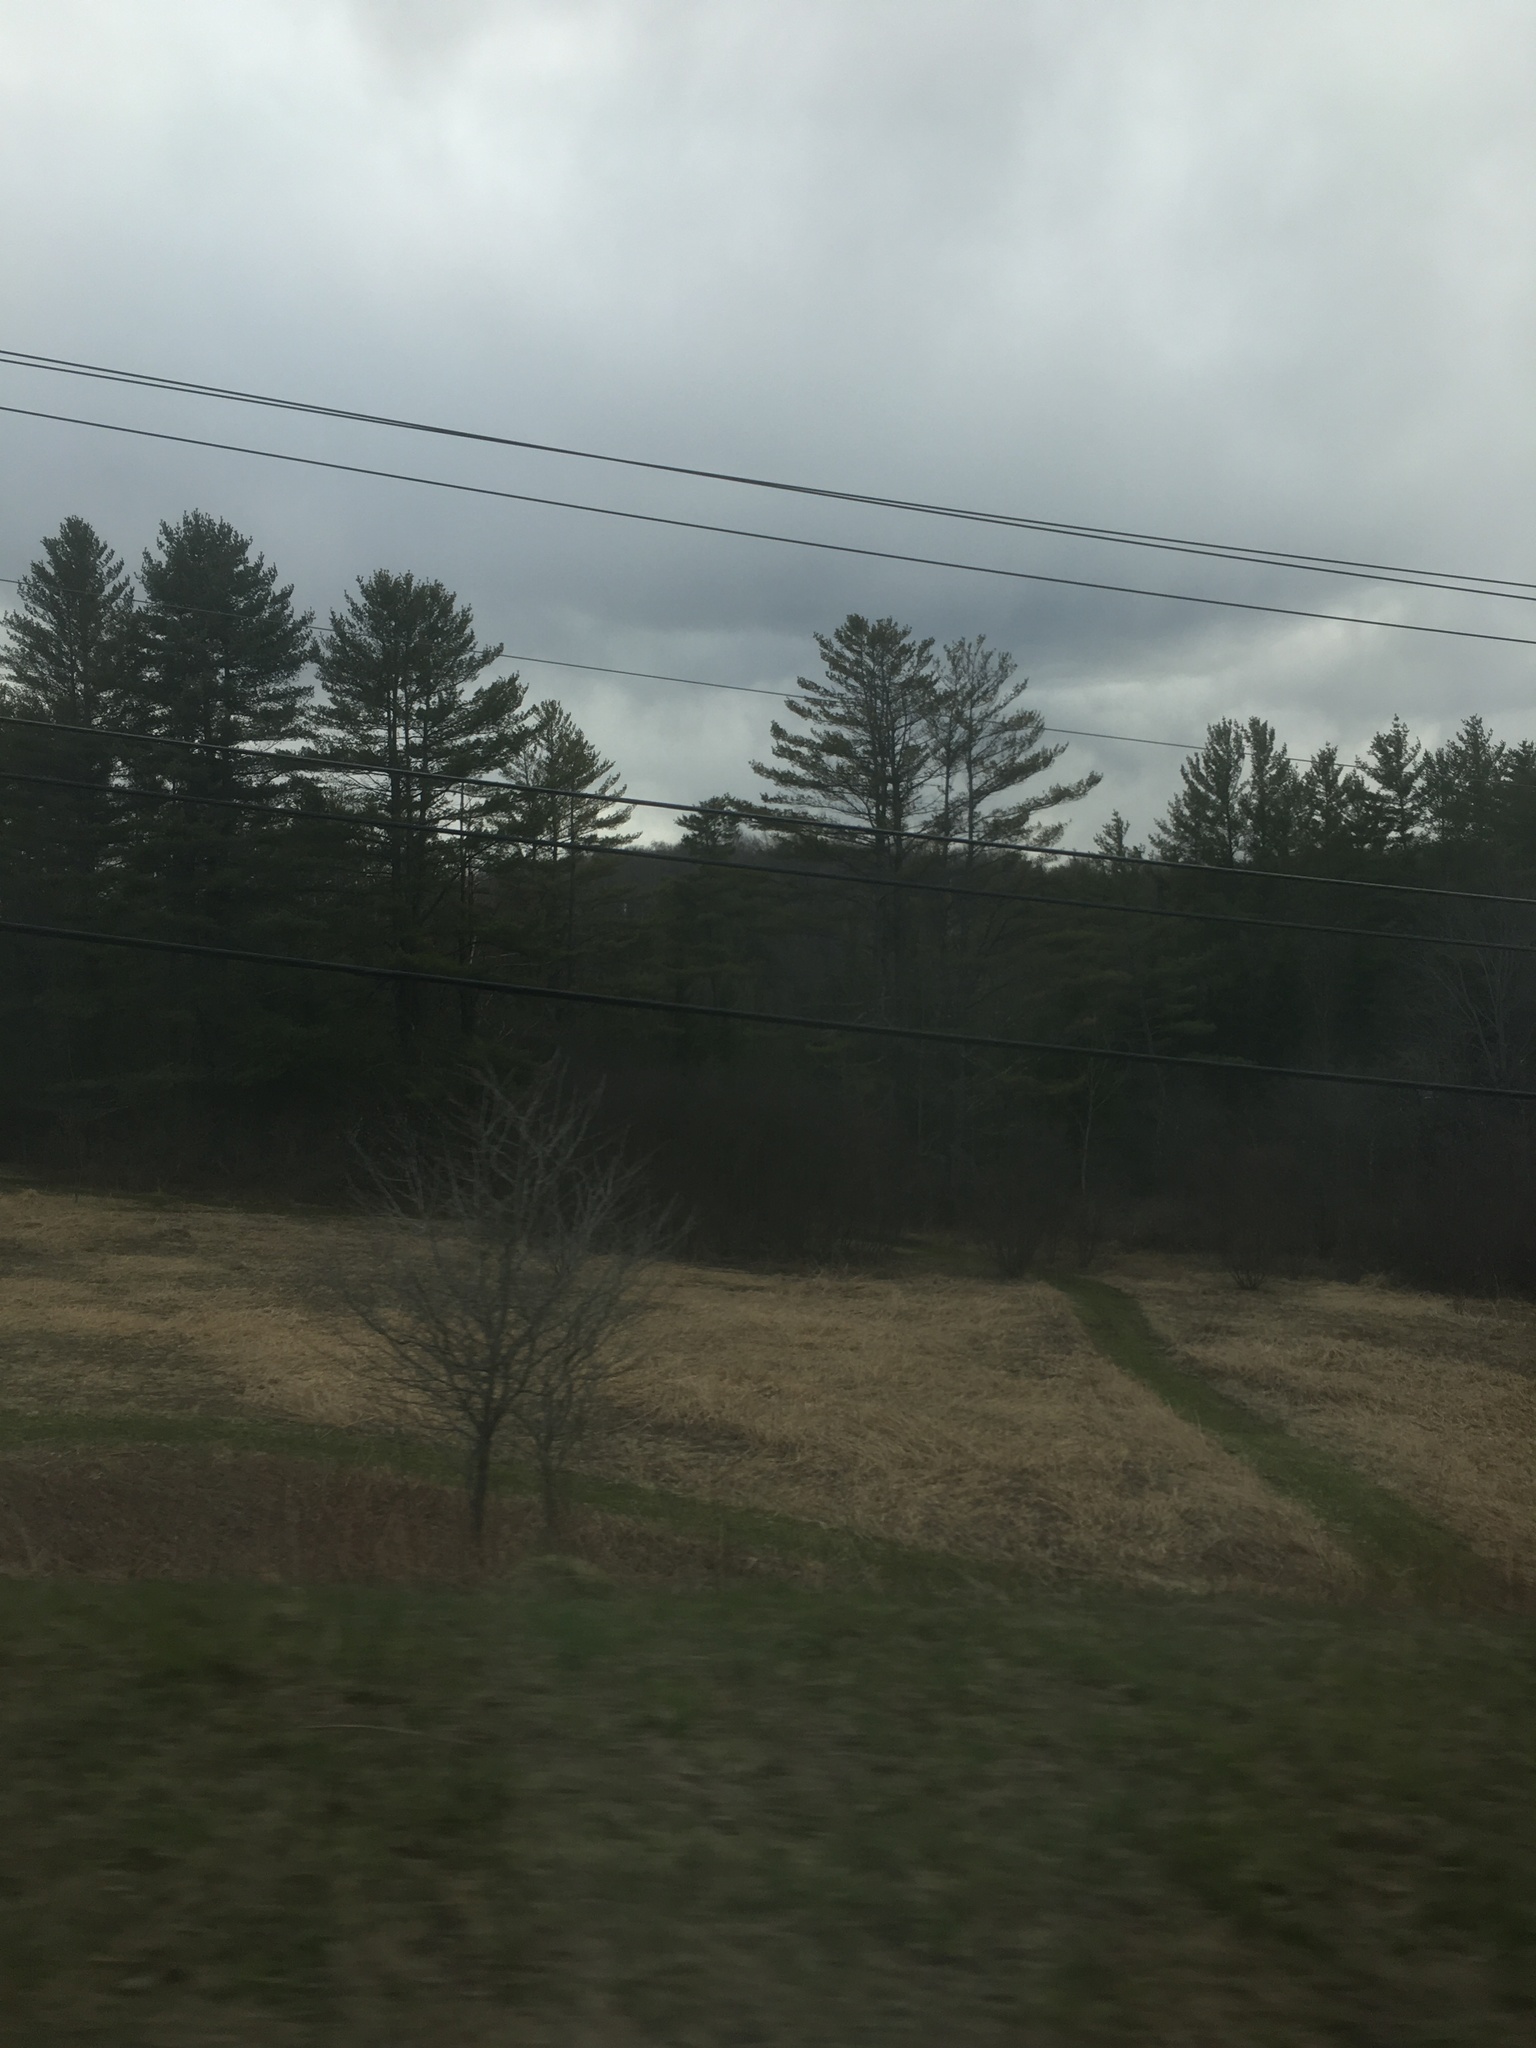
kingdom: Plantae
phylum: Tracheophyta
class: Pinopsida
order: Pinales
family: Pinaceae
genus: Pinus
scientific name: Pinus strobus
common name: Weymouth pine
